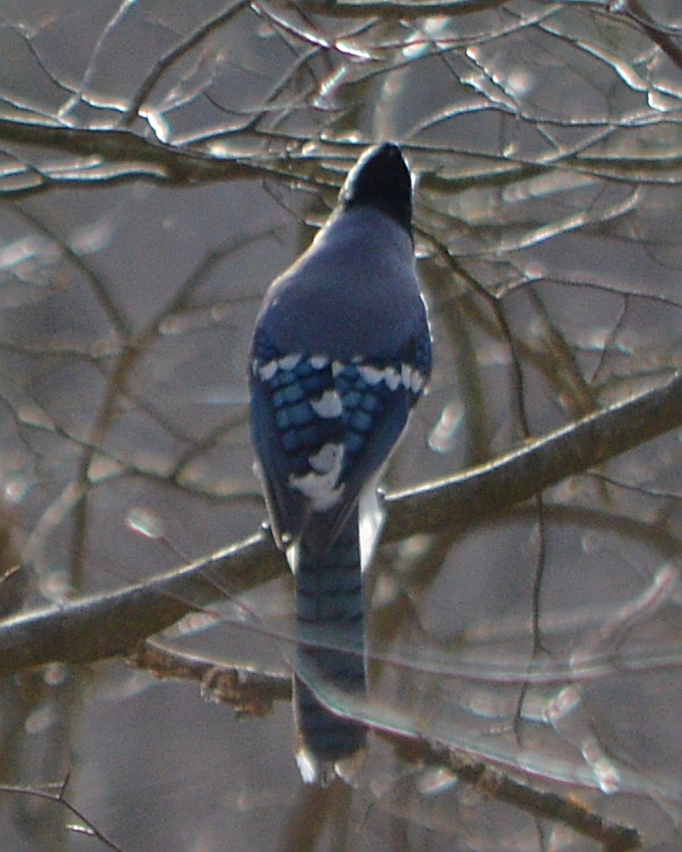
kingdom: Animalia
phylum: Chordata
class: Aves
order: Passeriformes
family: Corvidae
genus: Cyanocitta
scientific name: Cyanocitta cristata
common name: Blue jay
